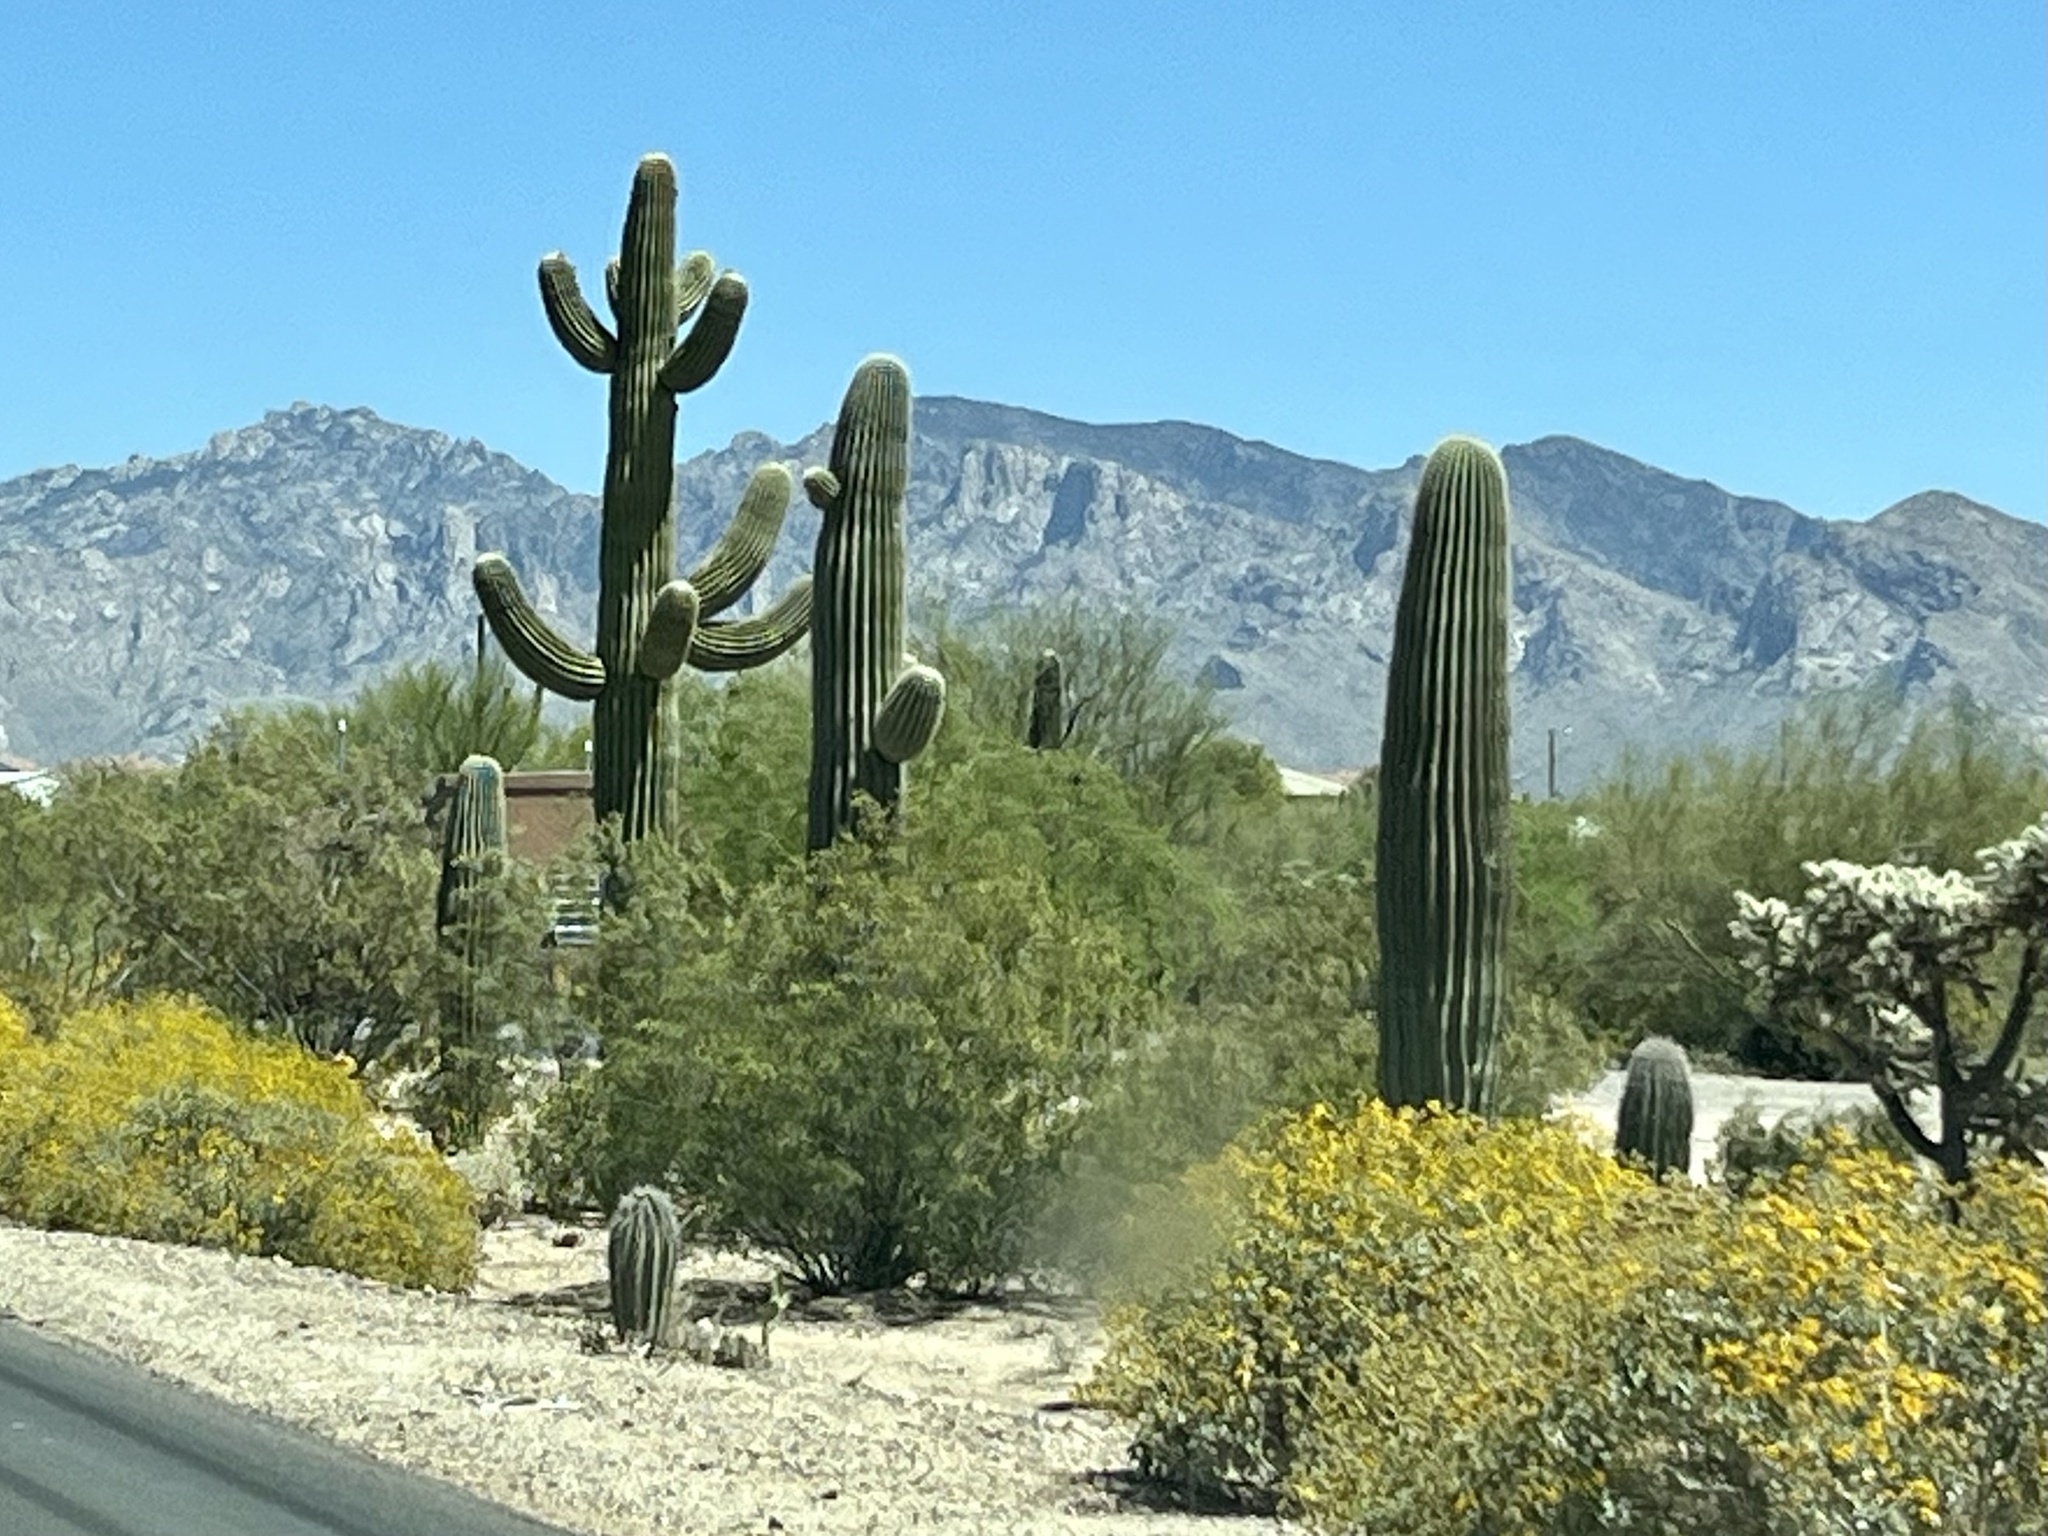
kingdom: Plantae
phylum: Tracheophyta
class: Magnoliopsida
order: Caryophyllales
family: Cactaceae
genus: Carnegiea
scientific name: Carnegiea gigantea
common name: Saguaro
